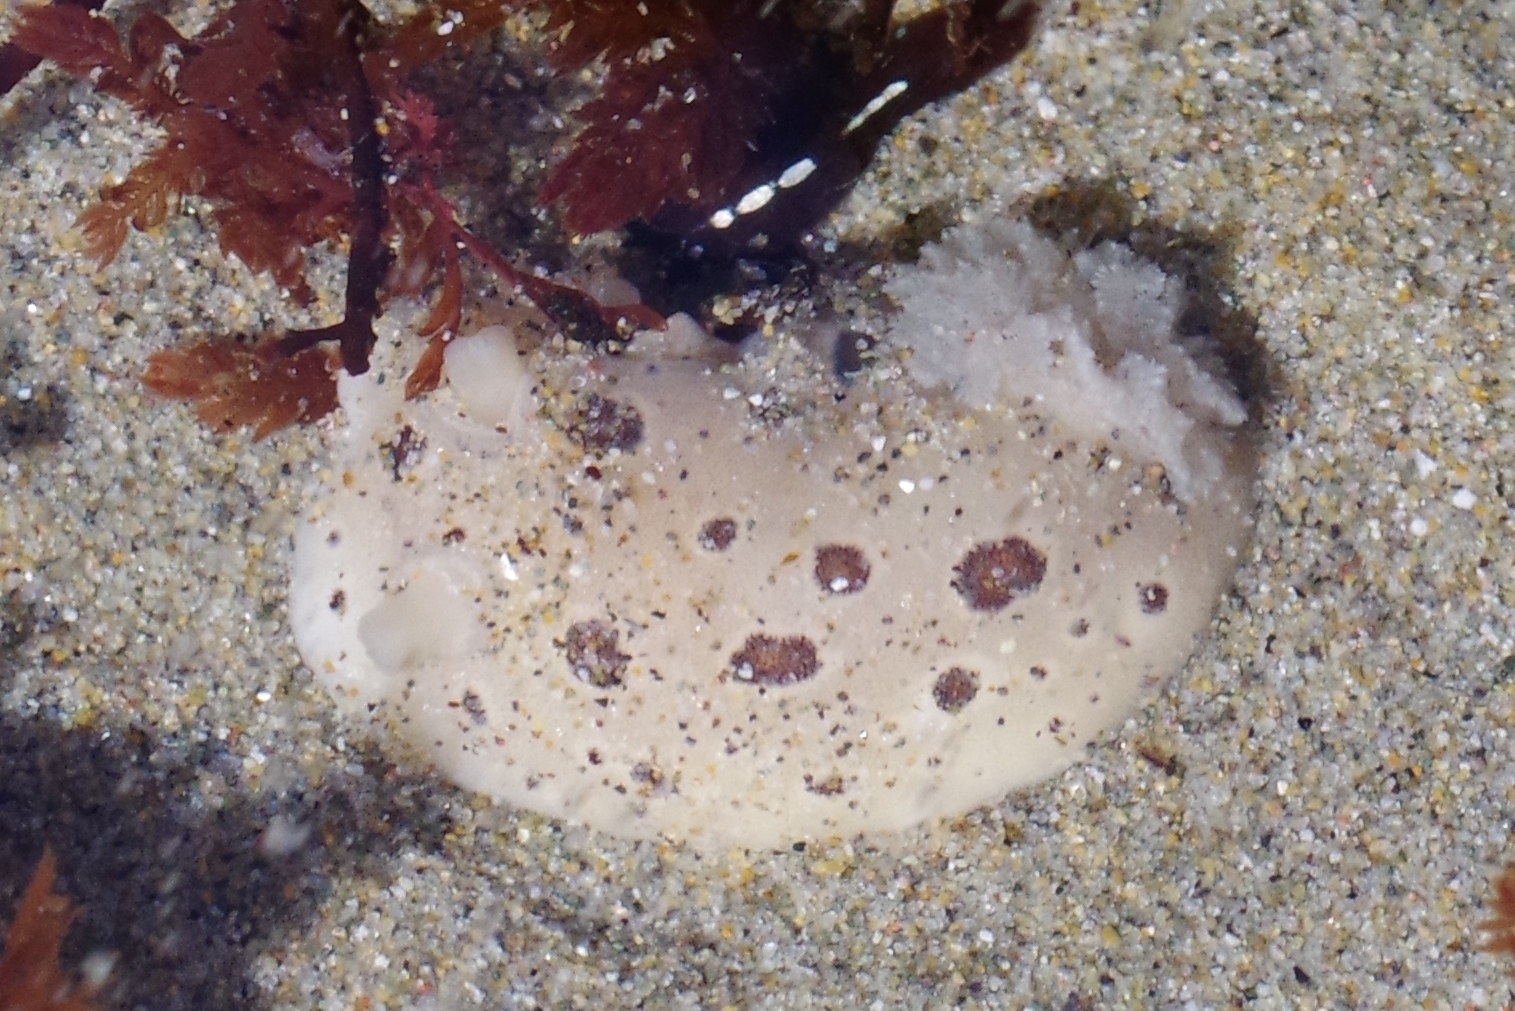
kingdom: Animalia
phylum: Mollusca
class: Gastropoda
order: Nudibranchia
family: Discodorididae
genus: Diaulula
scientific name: Diaulula odonoghuei
